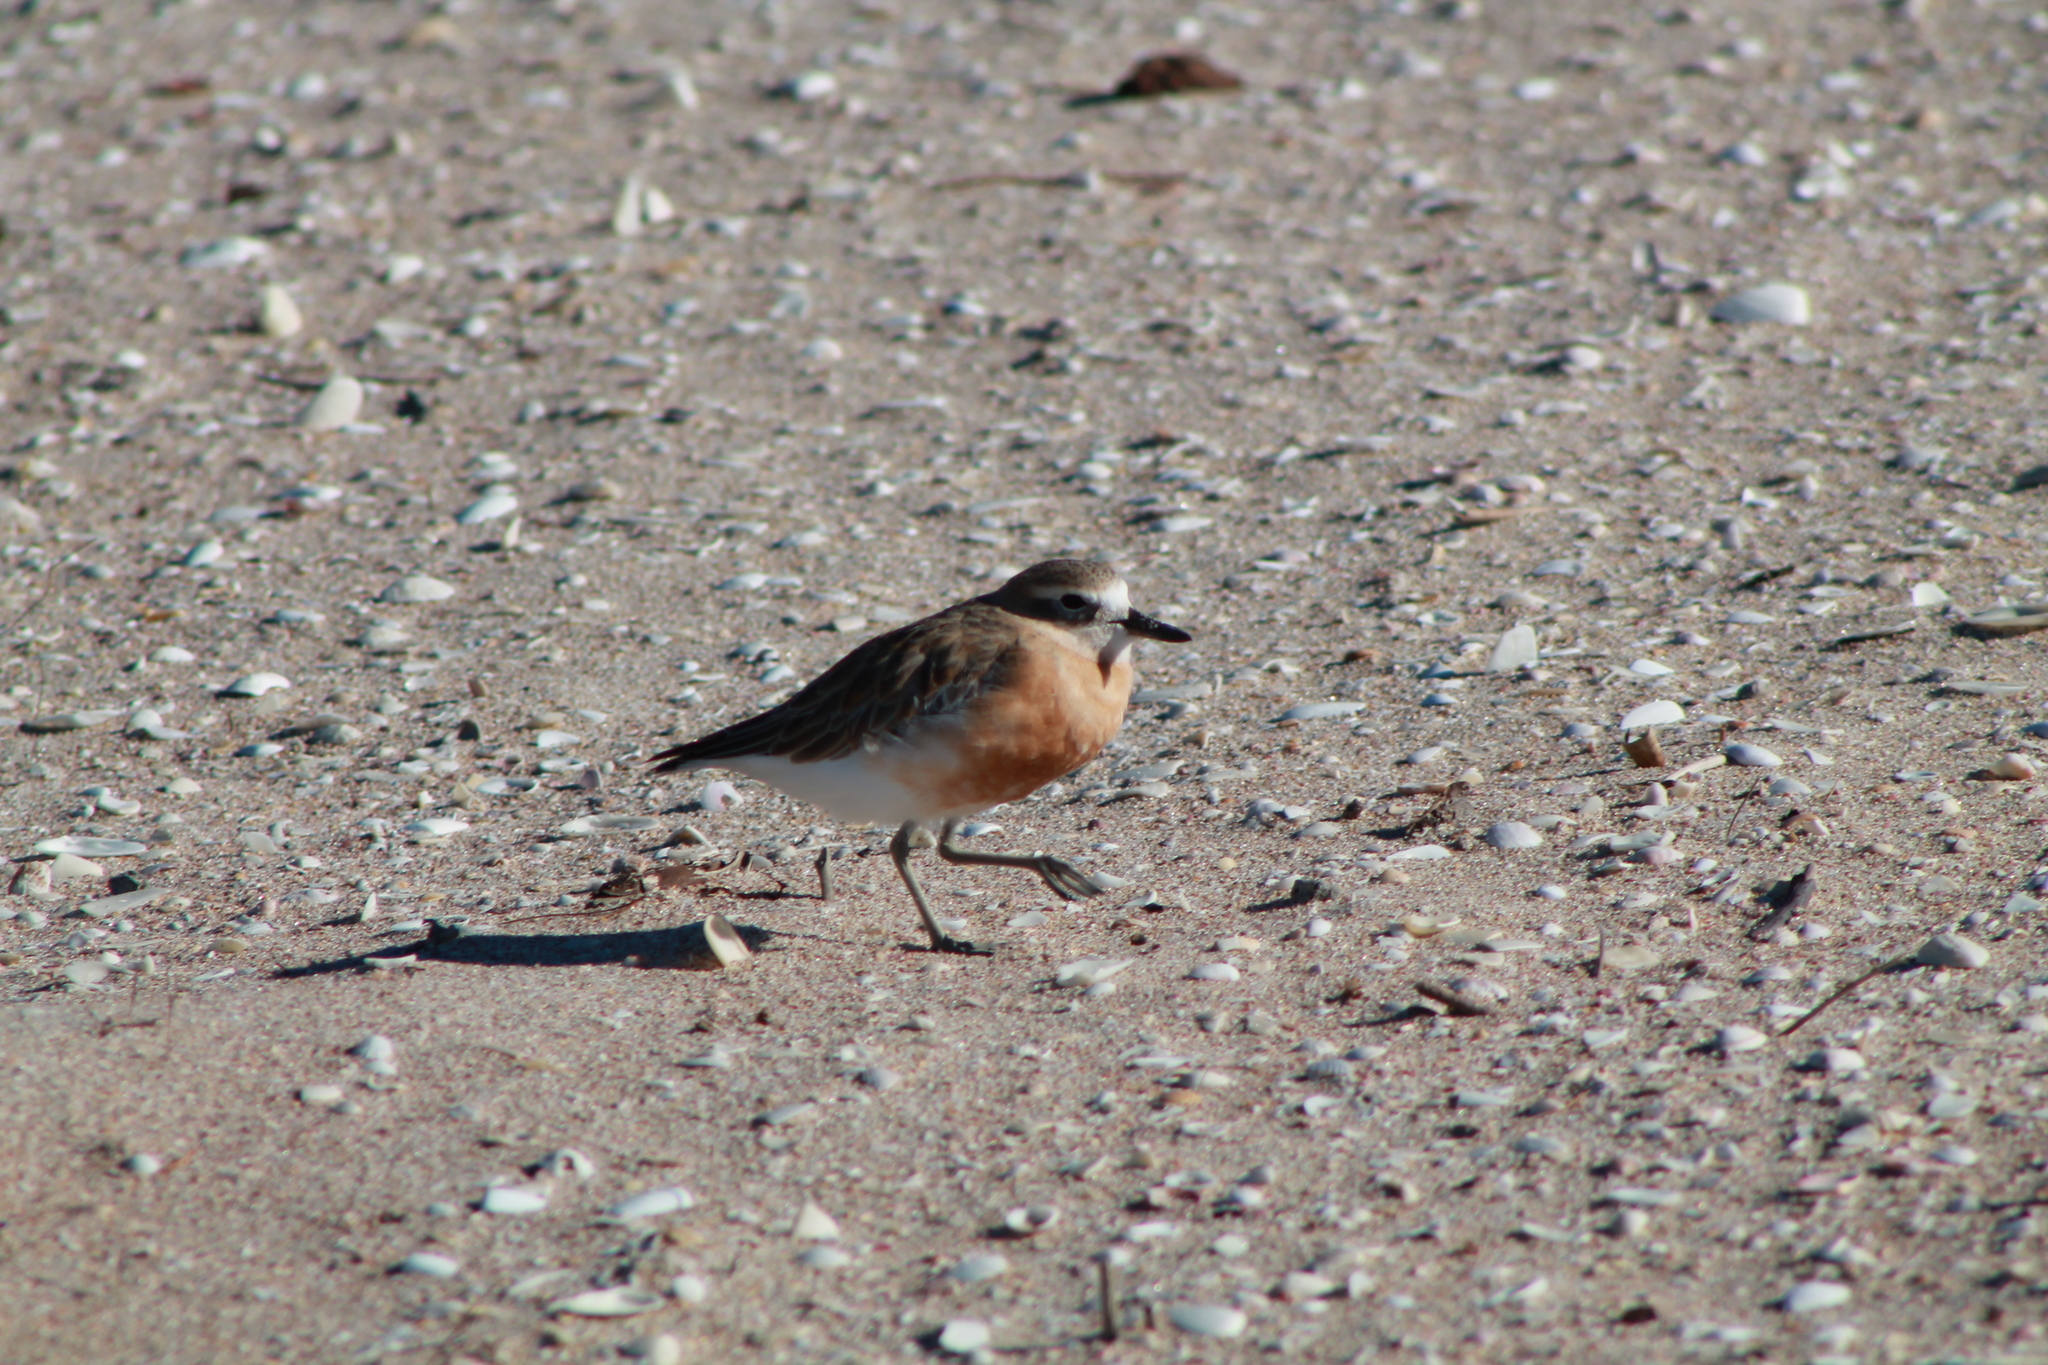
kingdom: Animalia
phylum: Chordata
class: Aves
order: Charadriiformes
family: Charadriidae
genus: Anarhynchus
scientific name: Anarhynchus
